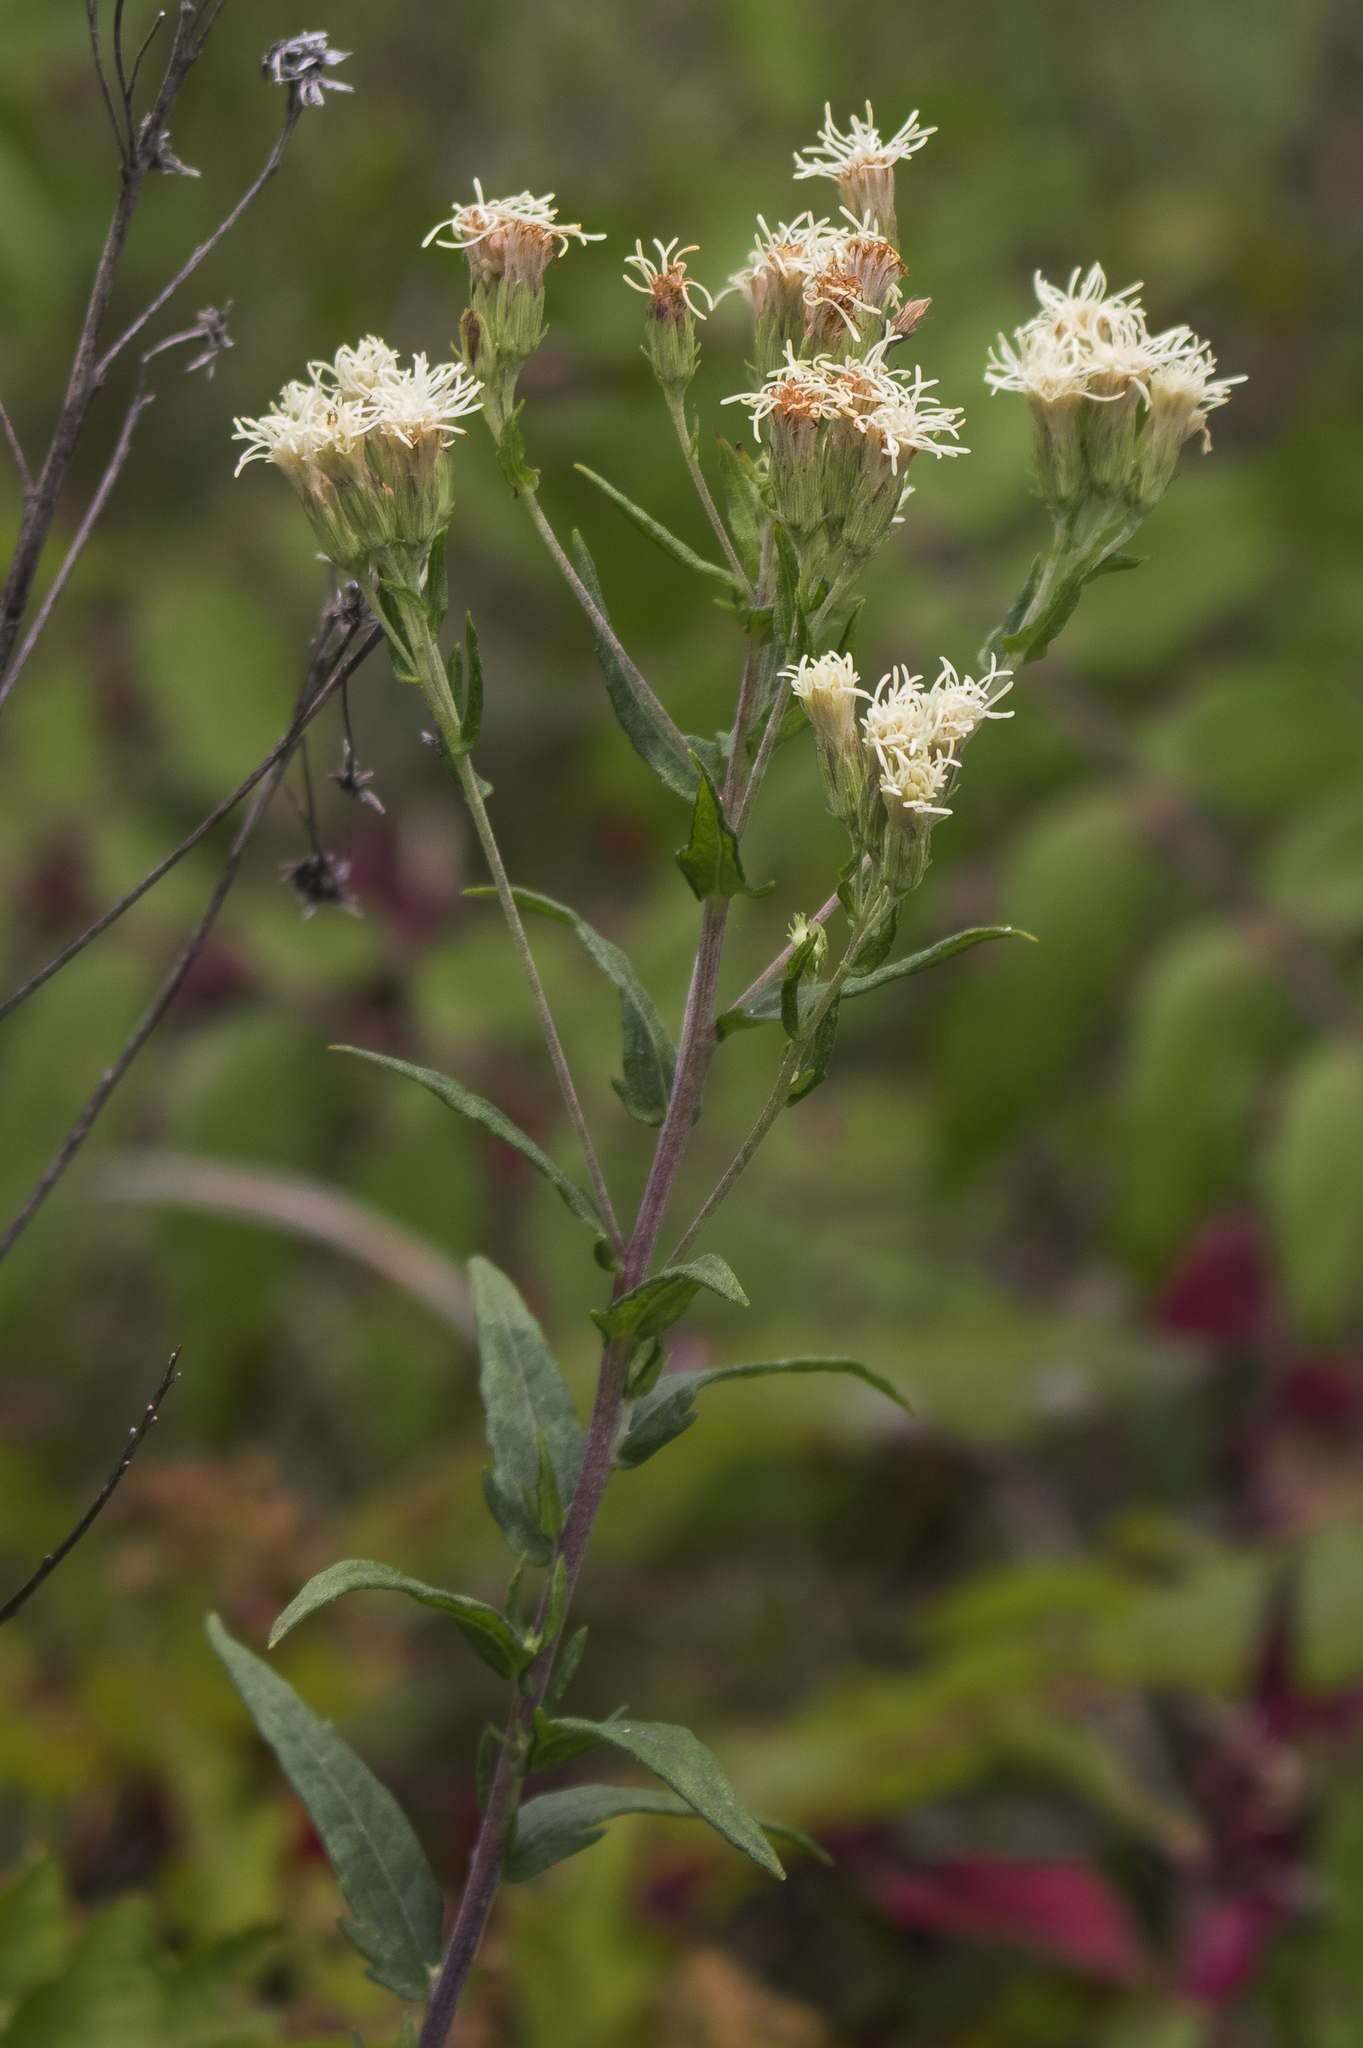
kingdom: Plantae
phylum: Tracheophyta
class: Magnoliopsida
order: Asterales
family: Asteraceae
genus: Brickellia
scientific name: Brickellia eupatorioides
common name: False boneset
